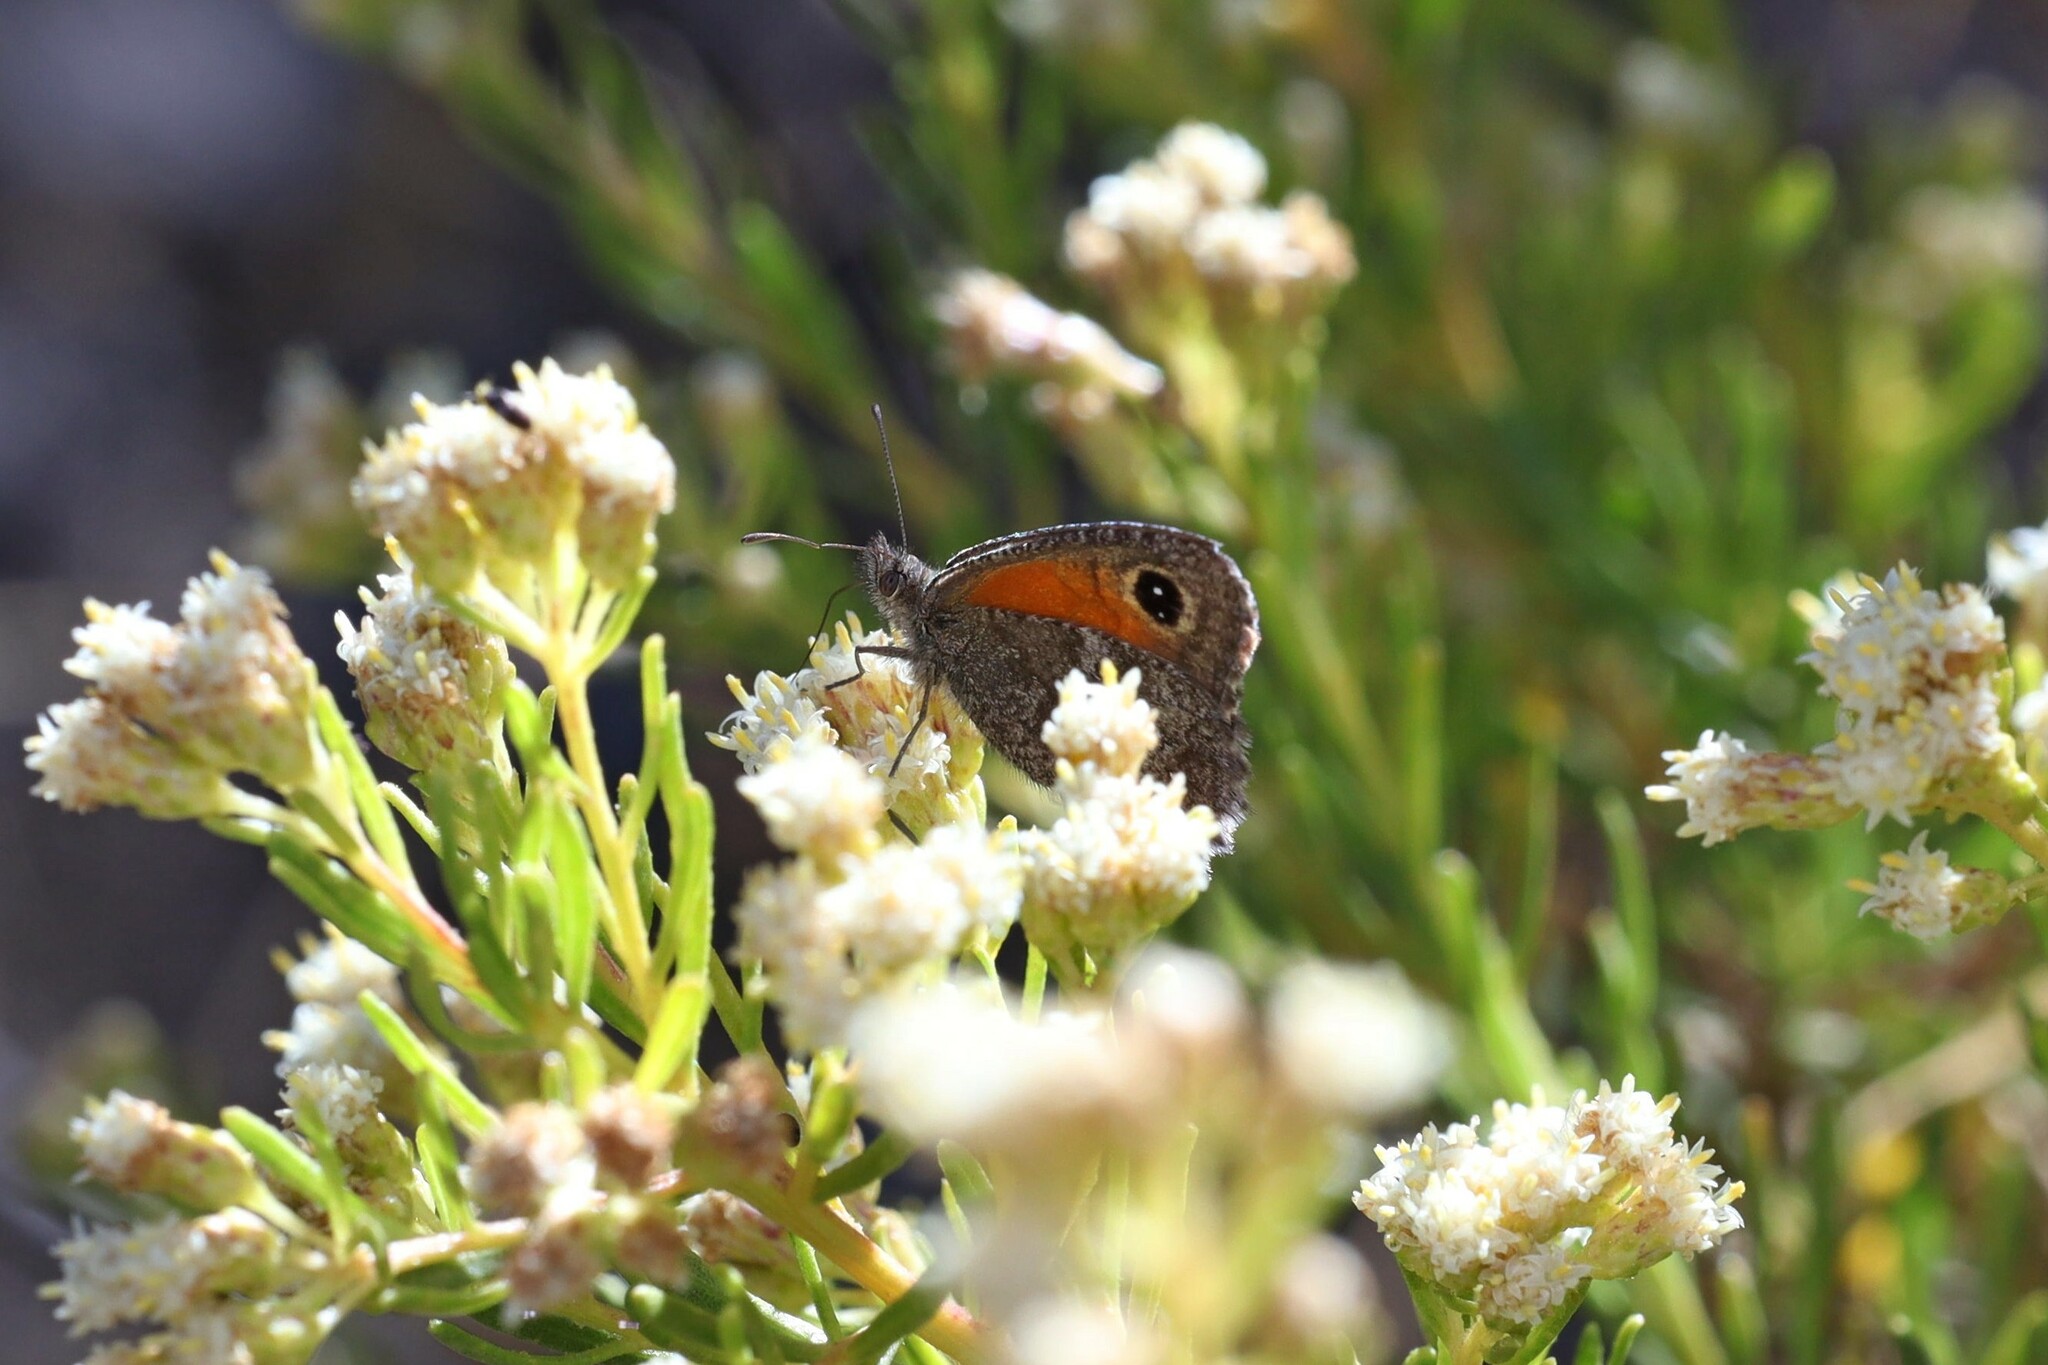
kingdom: Animalia
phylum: Arthropoda
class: Insecta
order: Lepidoptera
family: Nymphalidae
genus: Auca
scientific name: Auca coctei
